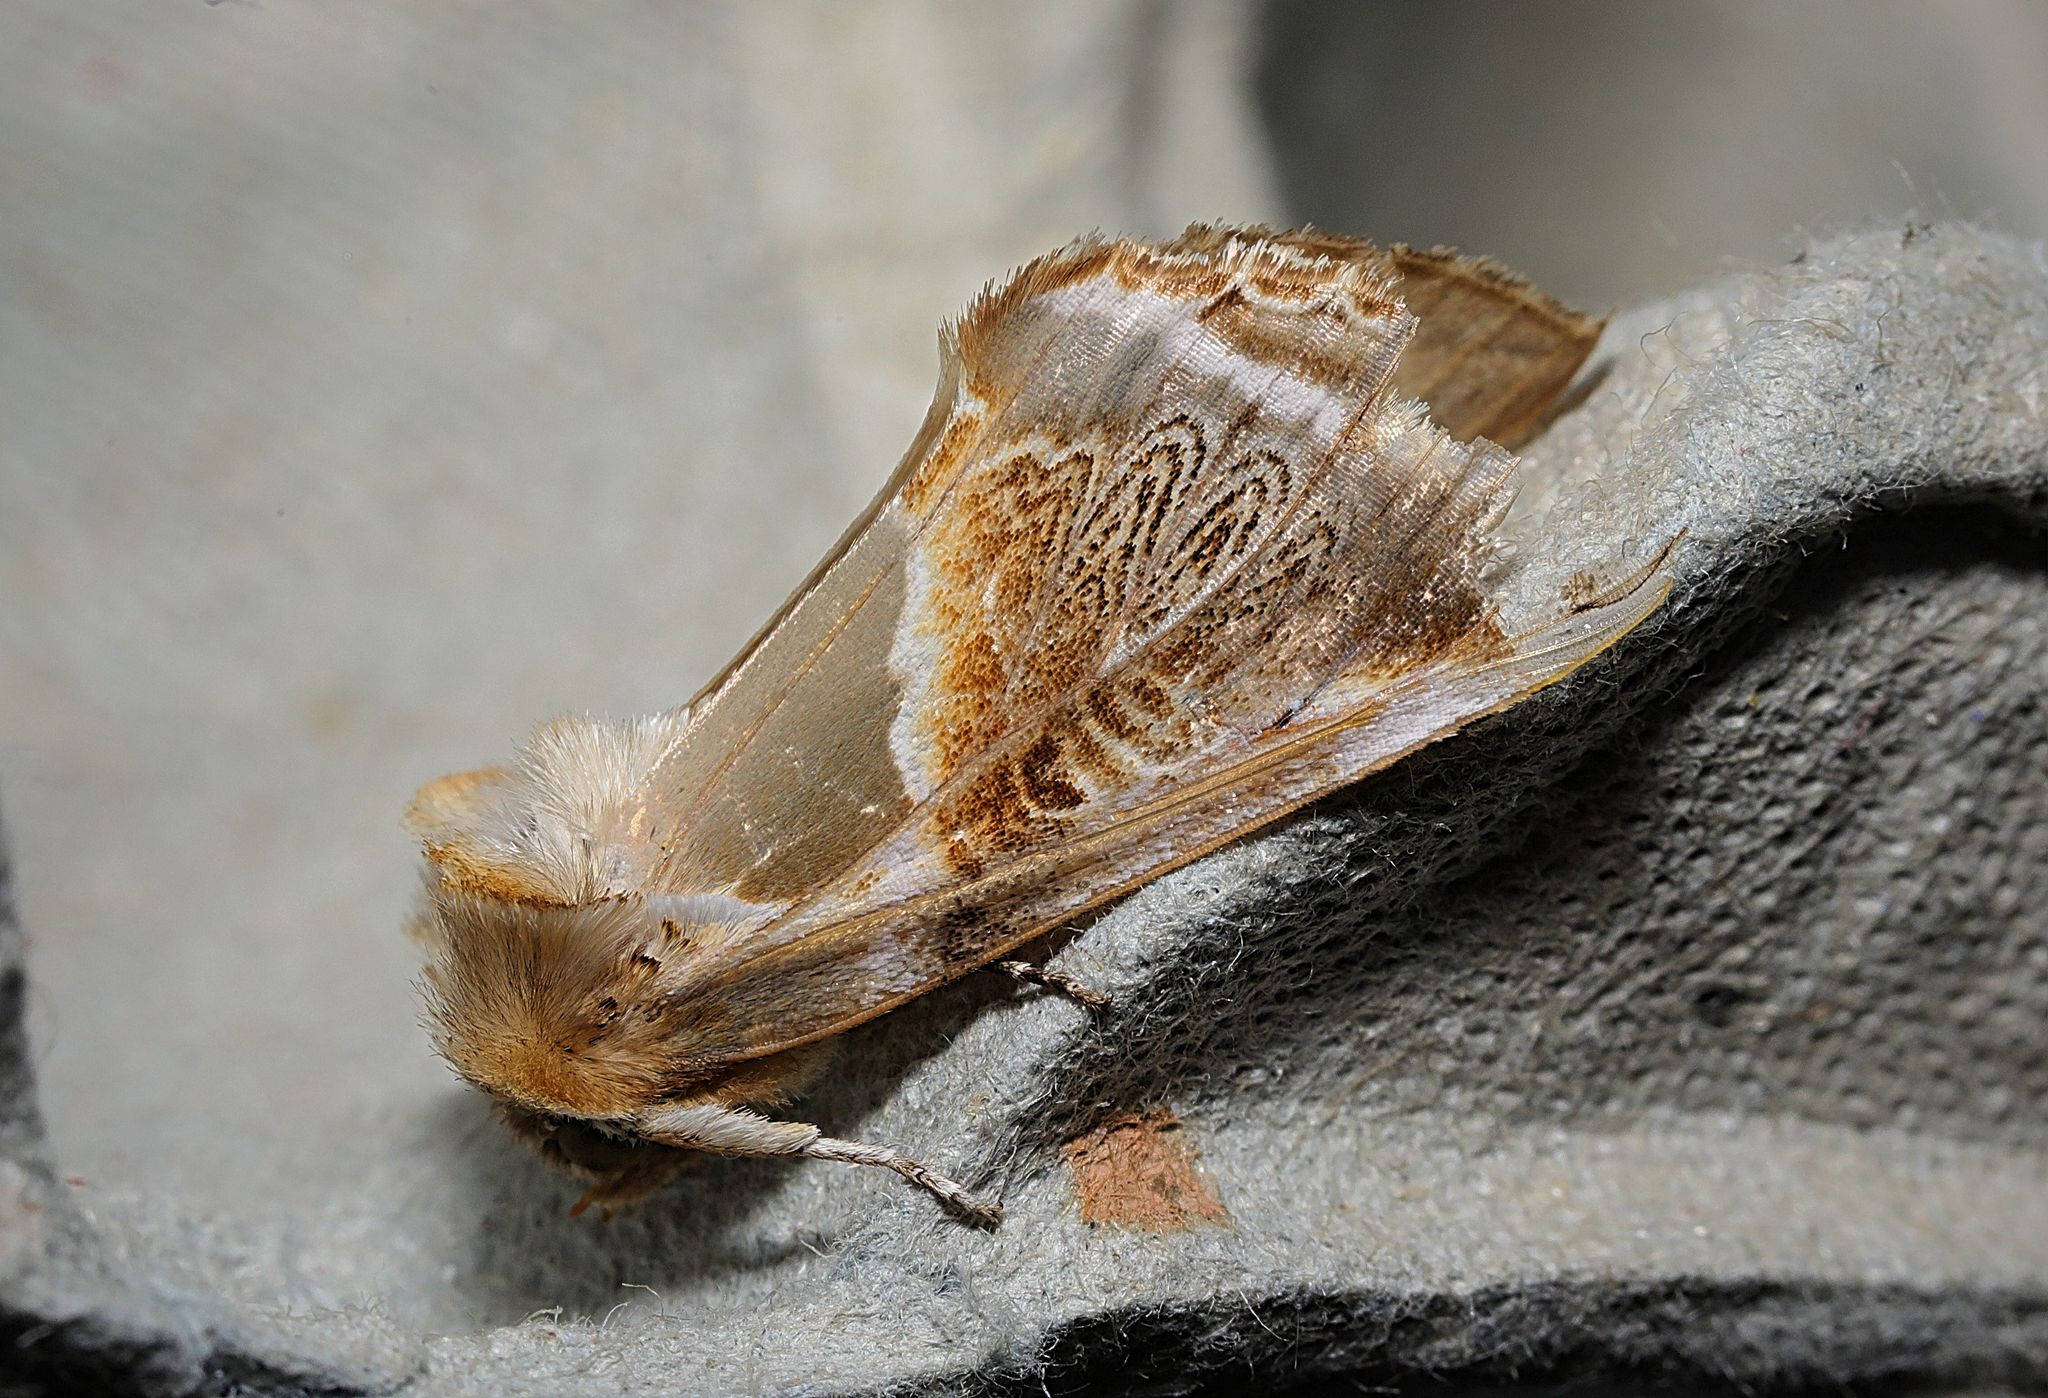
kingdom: Animalia
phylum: Arthropoda
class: Insecta
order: Lepidoptera
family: Drepanidae
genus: Habrosyne
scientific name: Habrosyne pyritoides
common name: Buff arches
